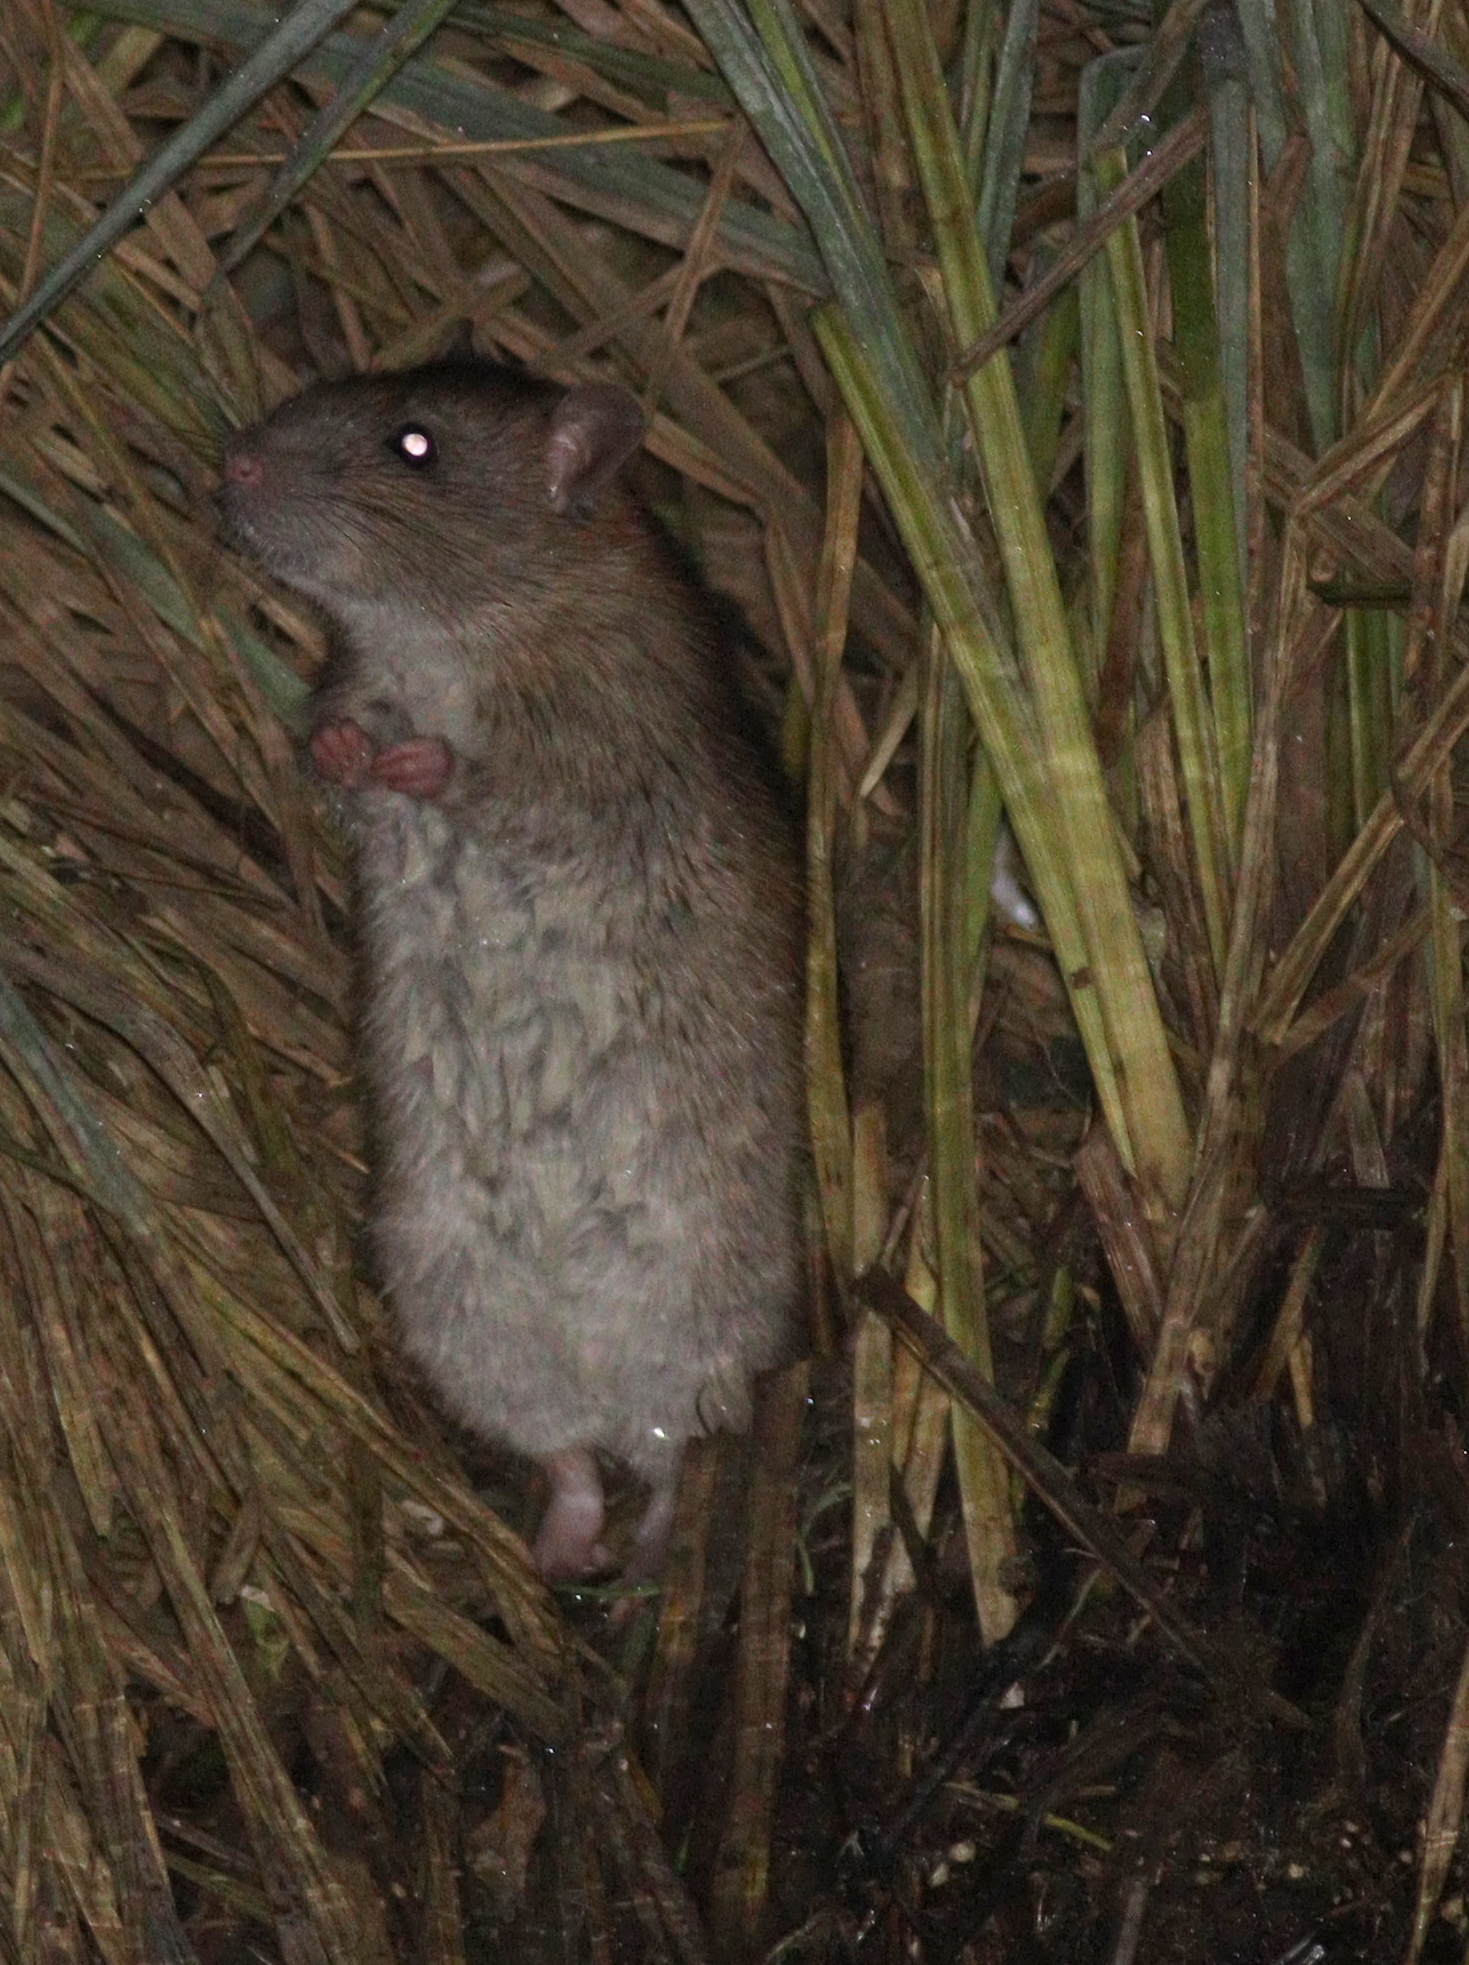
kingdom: Animalia
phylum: Chordata
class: Mammalia
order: Rodentia
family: Muridae
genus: Rattus
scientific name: Rattus norvegicus
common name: Brown rat
